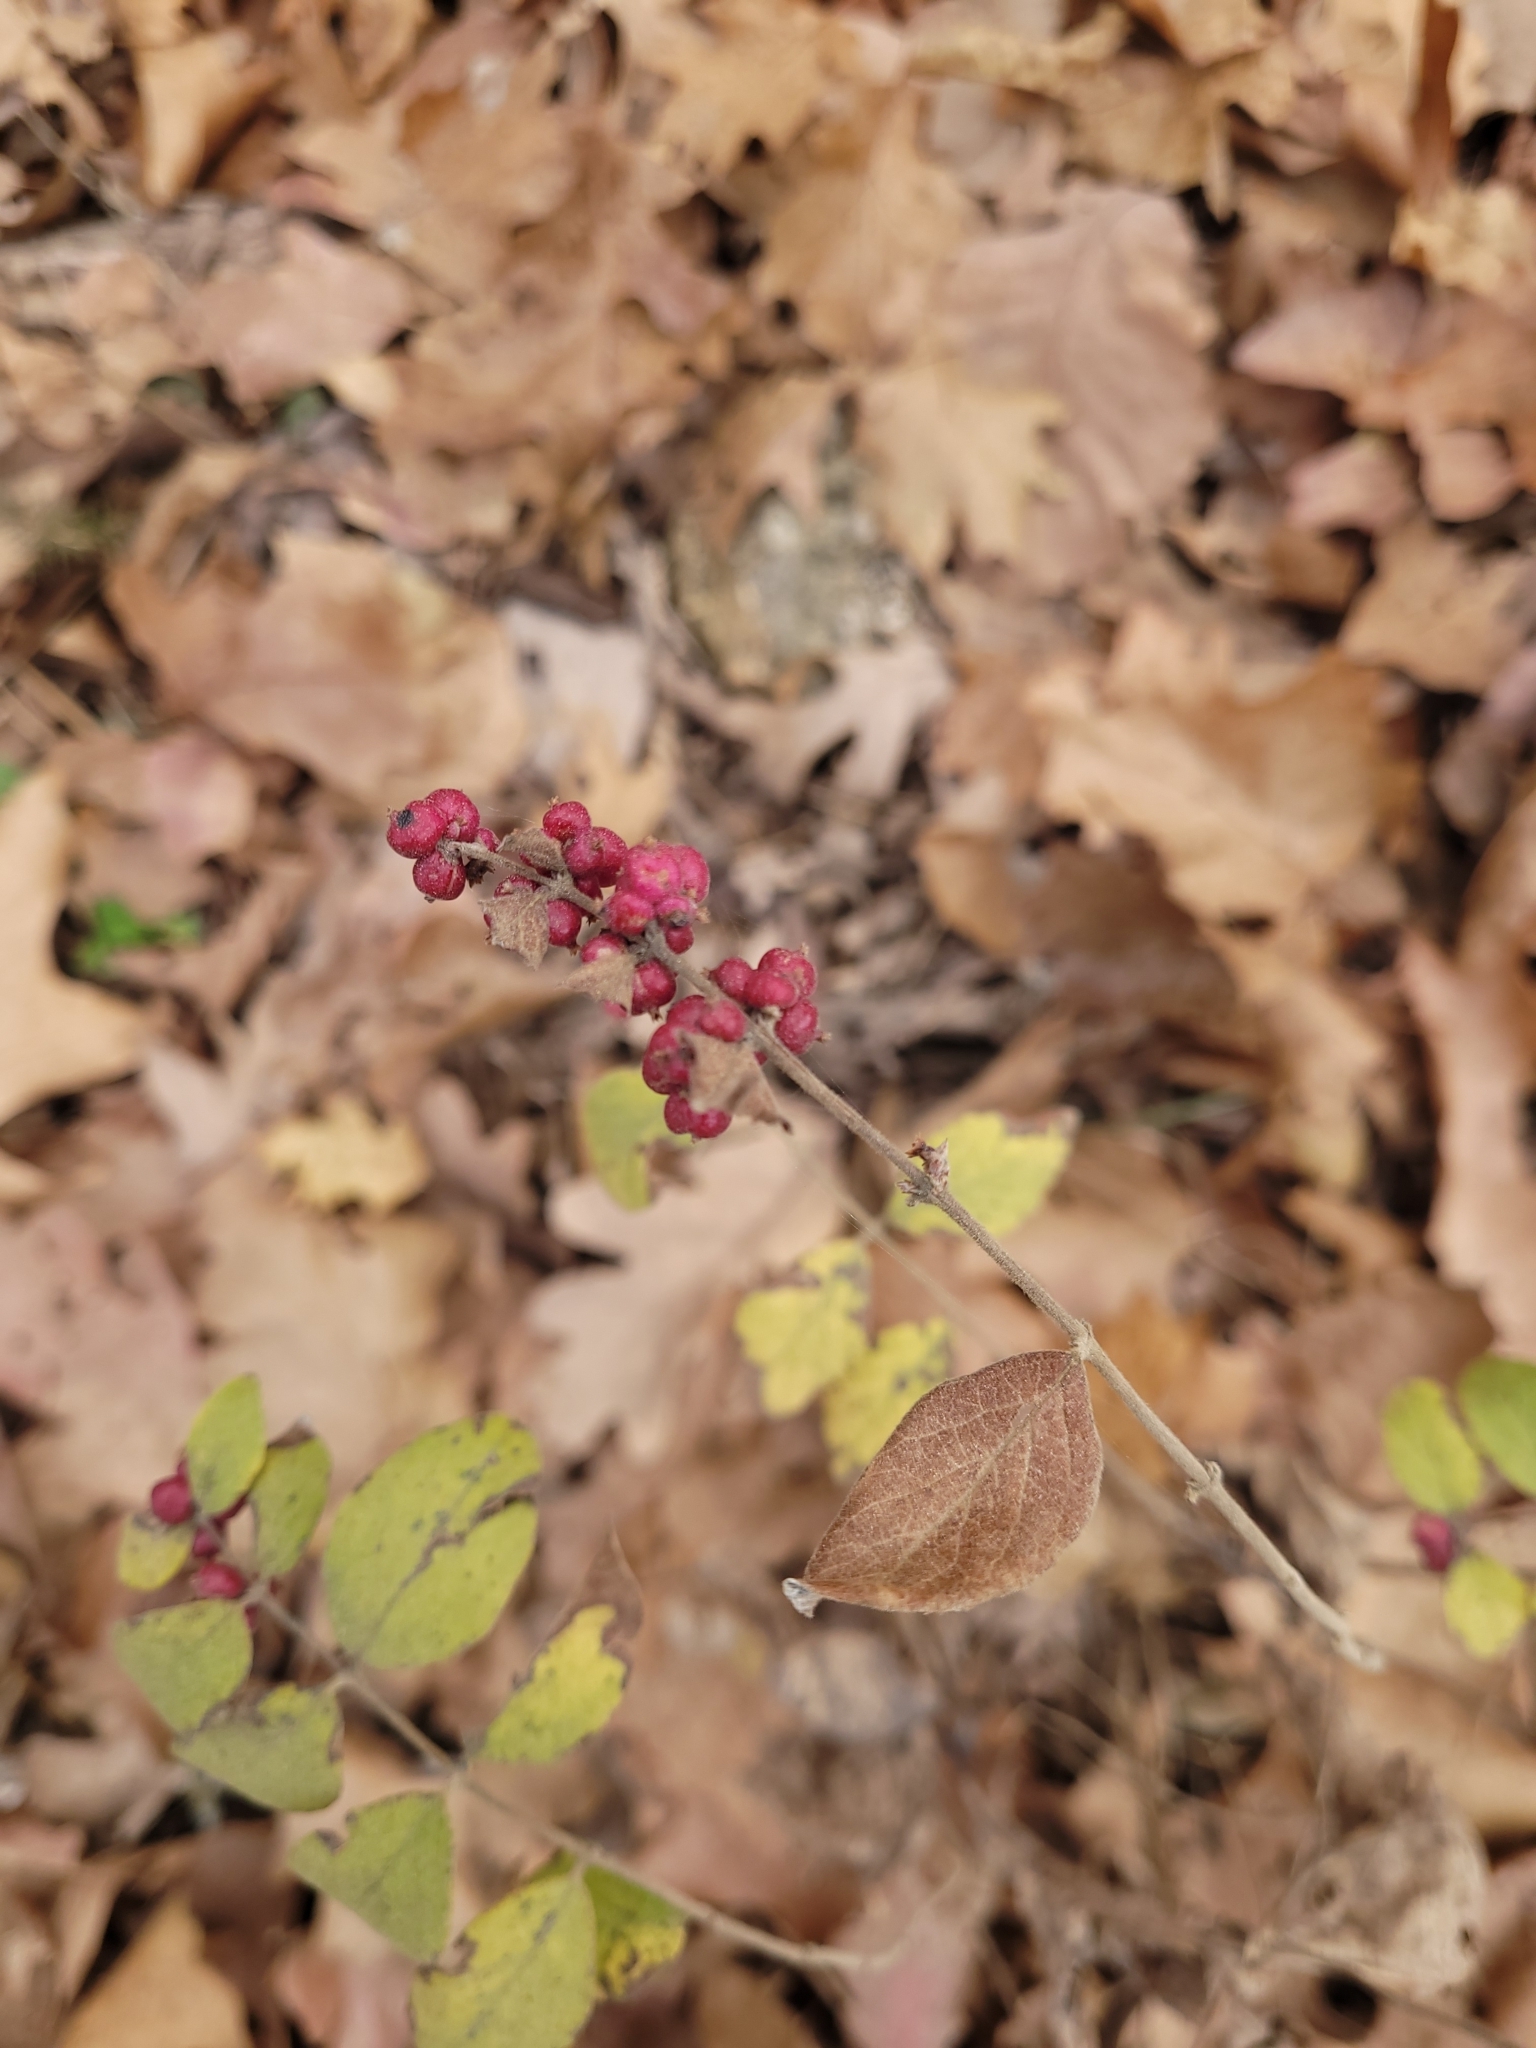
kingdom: Plantae
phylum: Tracheophyta
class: Magnoliopsida
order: Dipsacales
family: Caprifoliaceae
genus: Symphoricarpos
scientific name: Symphoricarpos orbiculatus
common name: Coralberry
